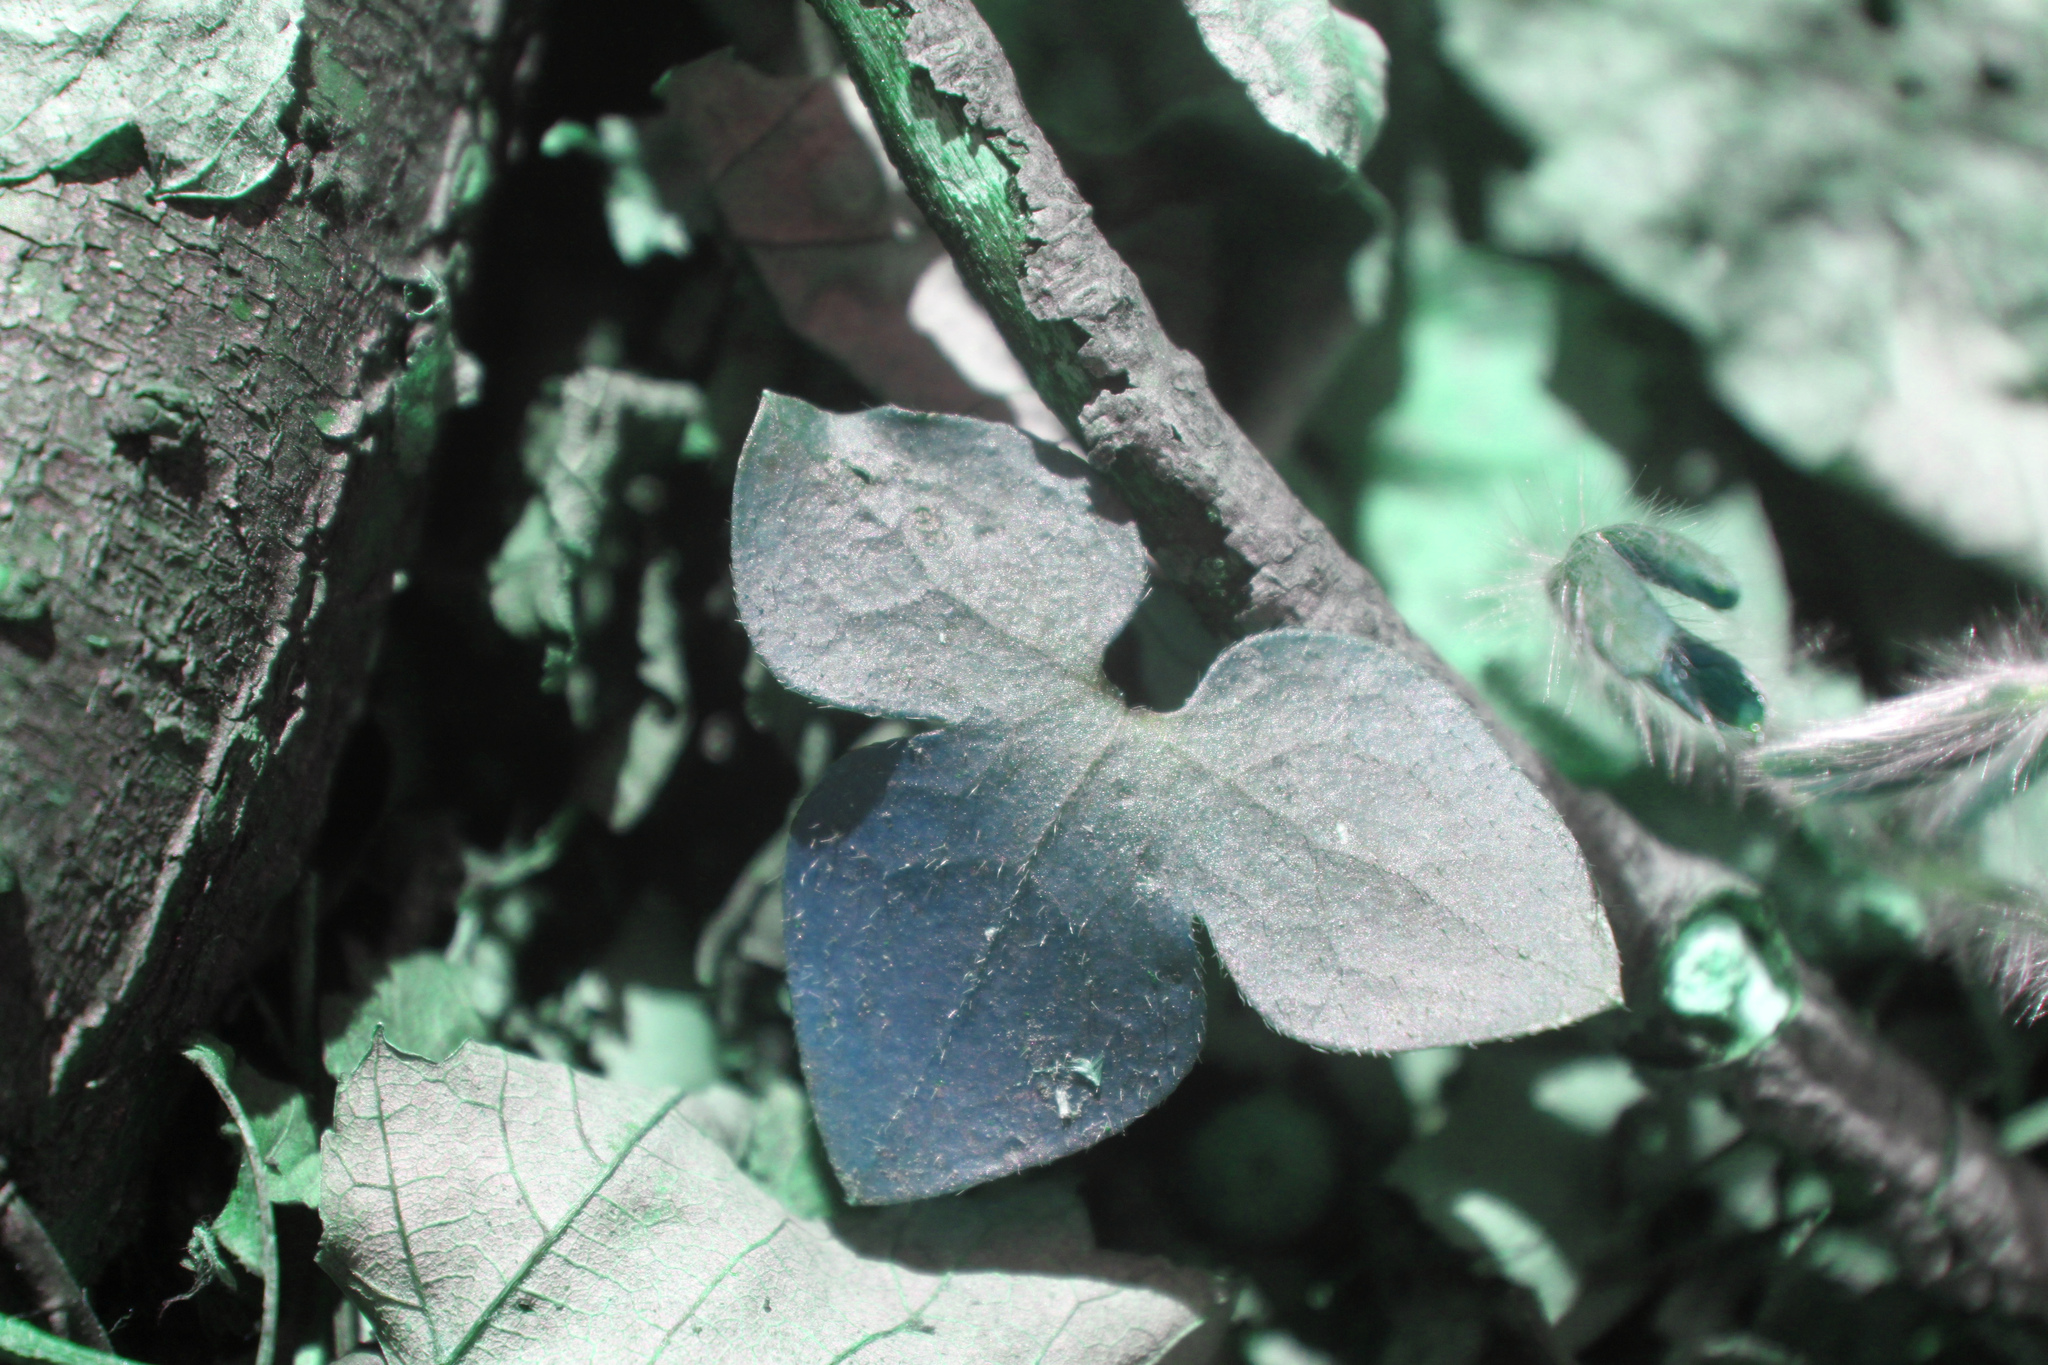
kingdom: Plantae
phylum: Tracheophyta
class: Magnoliopsida
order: Ranunculales
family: Ranunculaceae
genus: Hepatica
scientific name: Hepatica acutiloba
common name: Sharp-lobed hepatica
